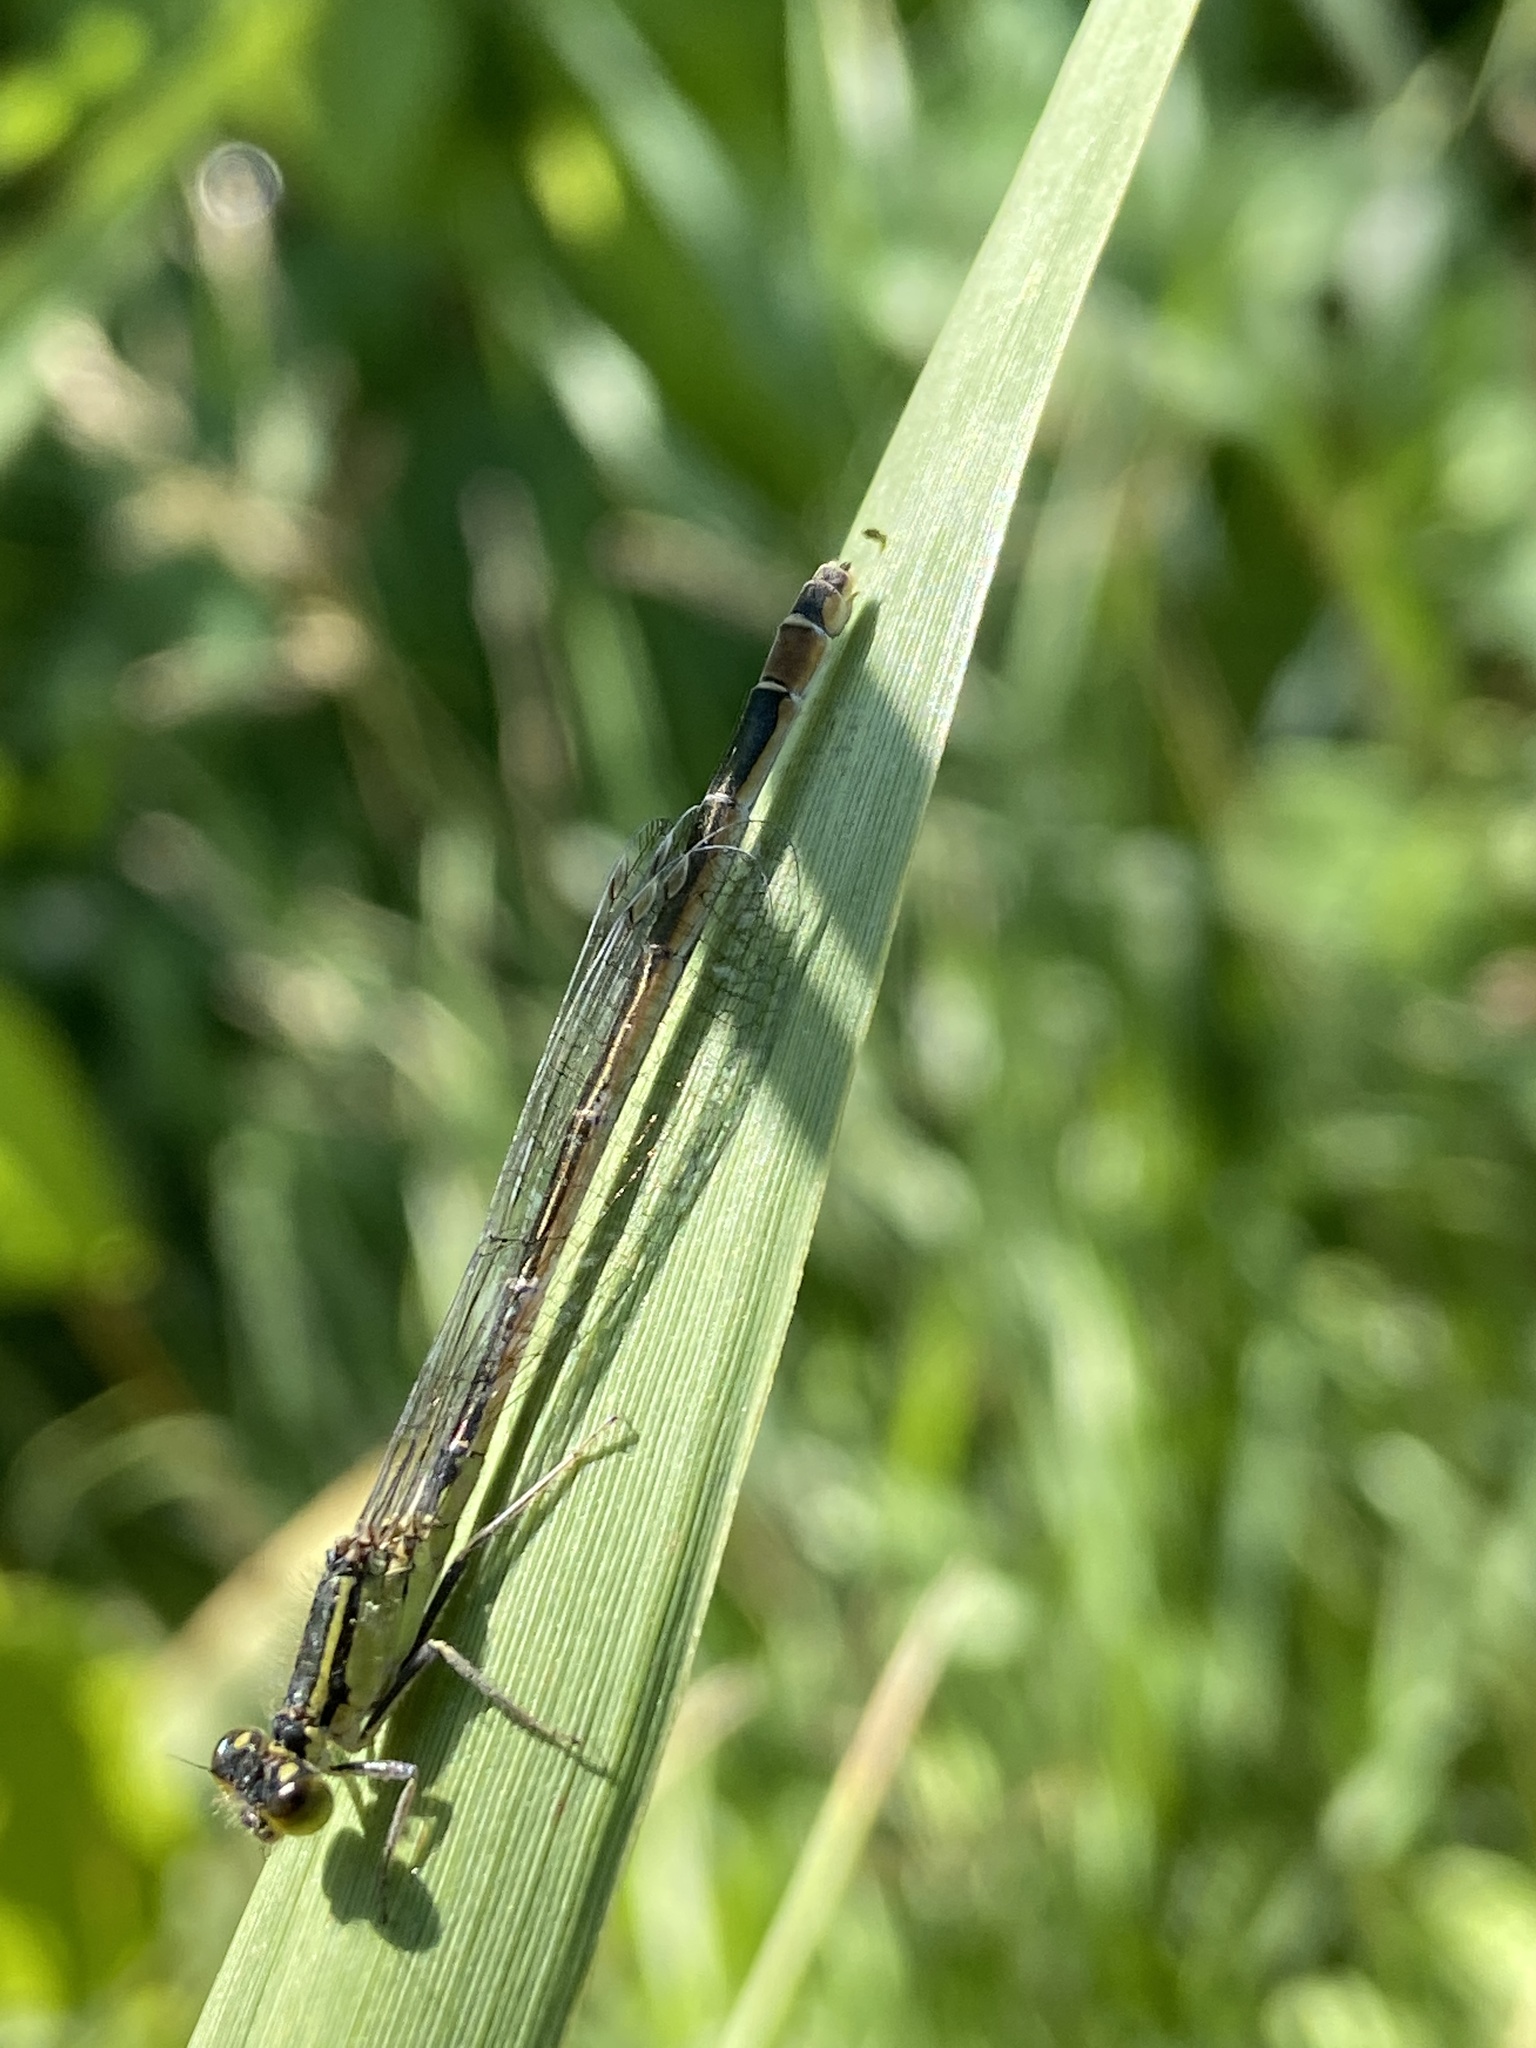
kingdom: Animalia
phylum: Arthropoda
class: Insecta
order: Odonata
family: Coenagrionidae
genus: Ischnura
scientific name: Ischnura elegans
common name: Blue-tailed damselfly
